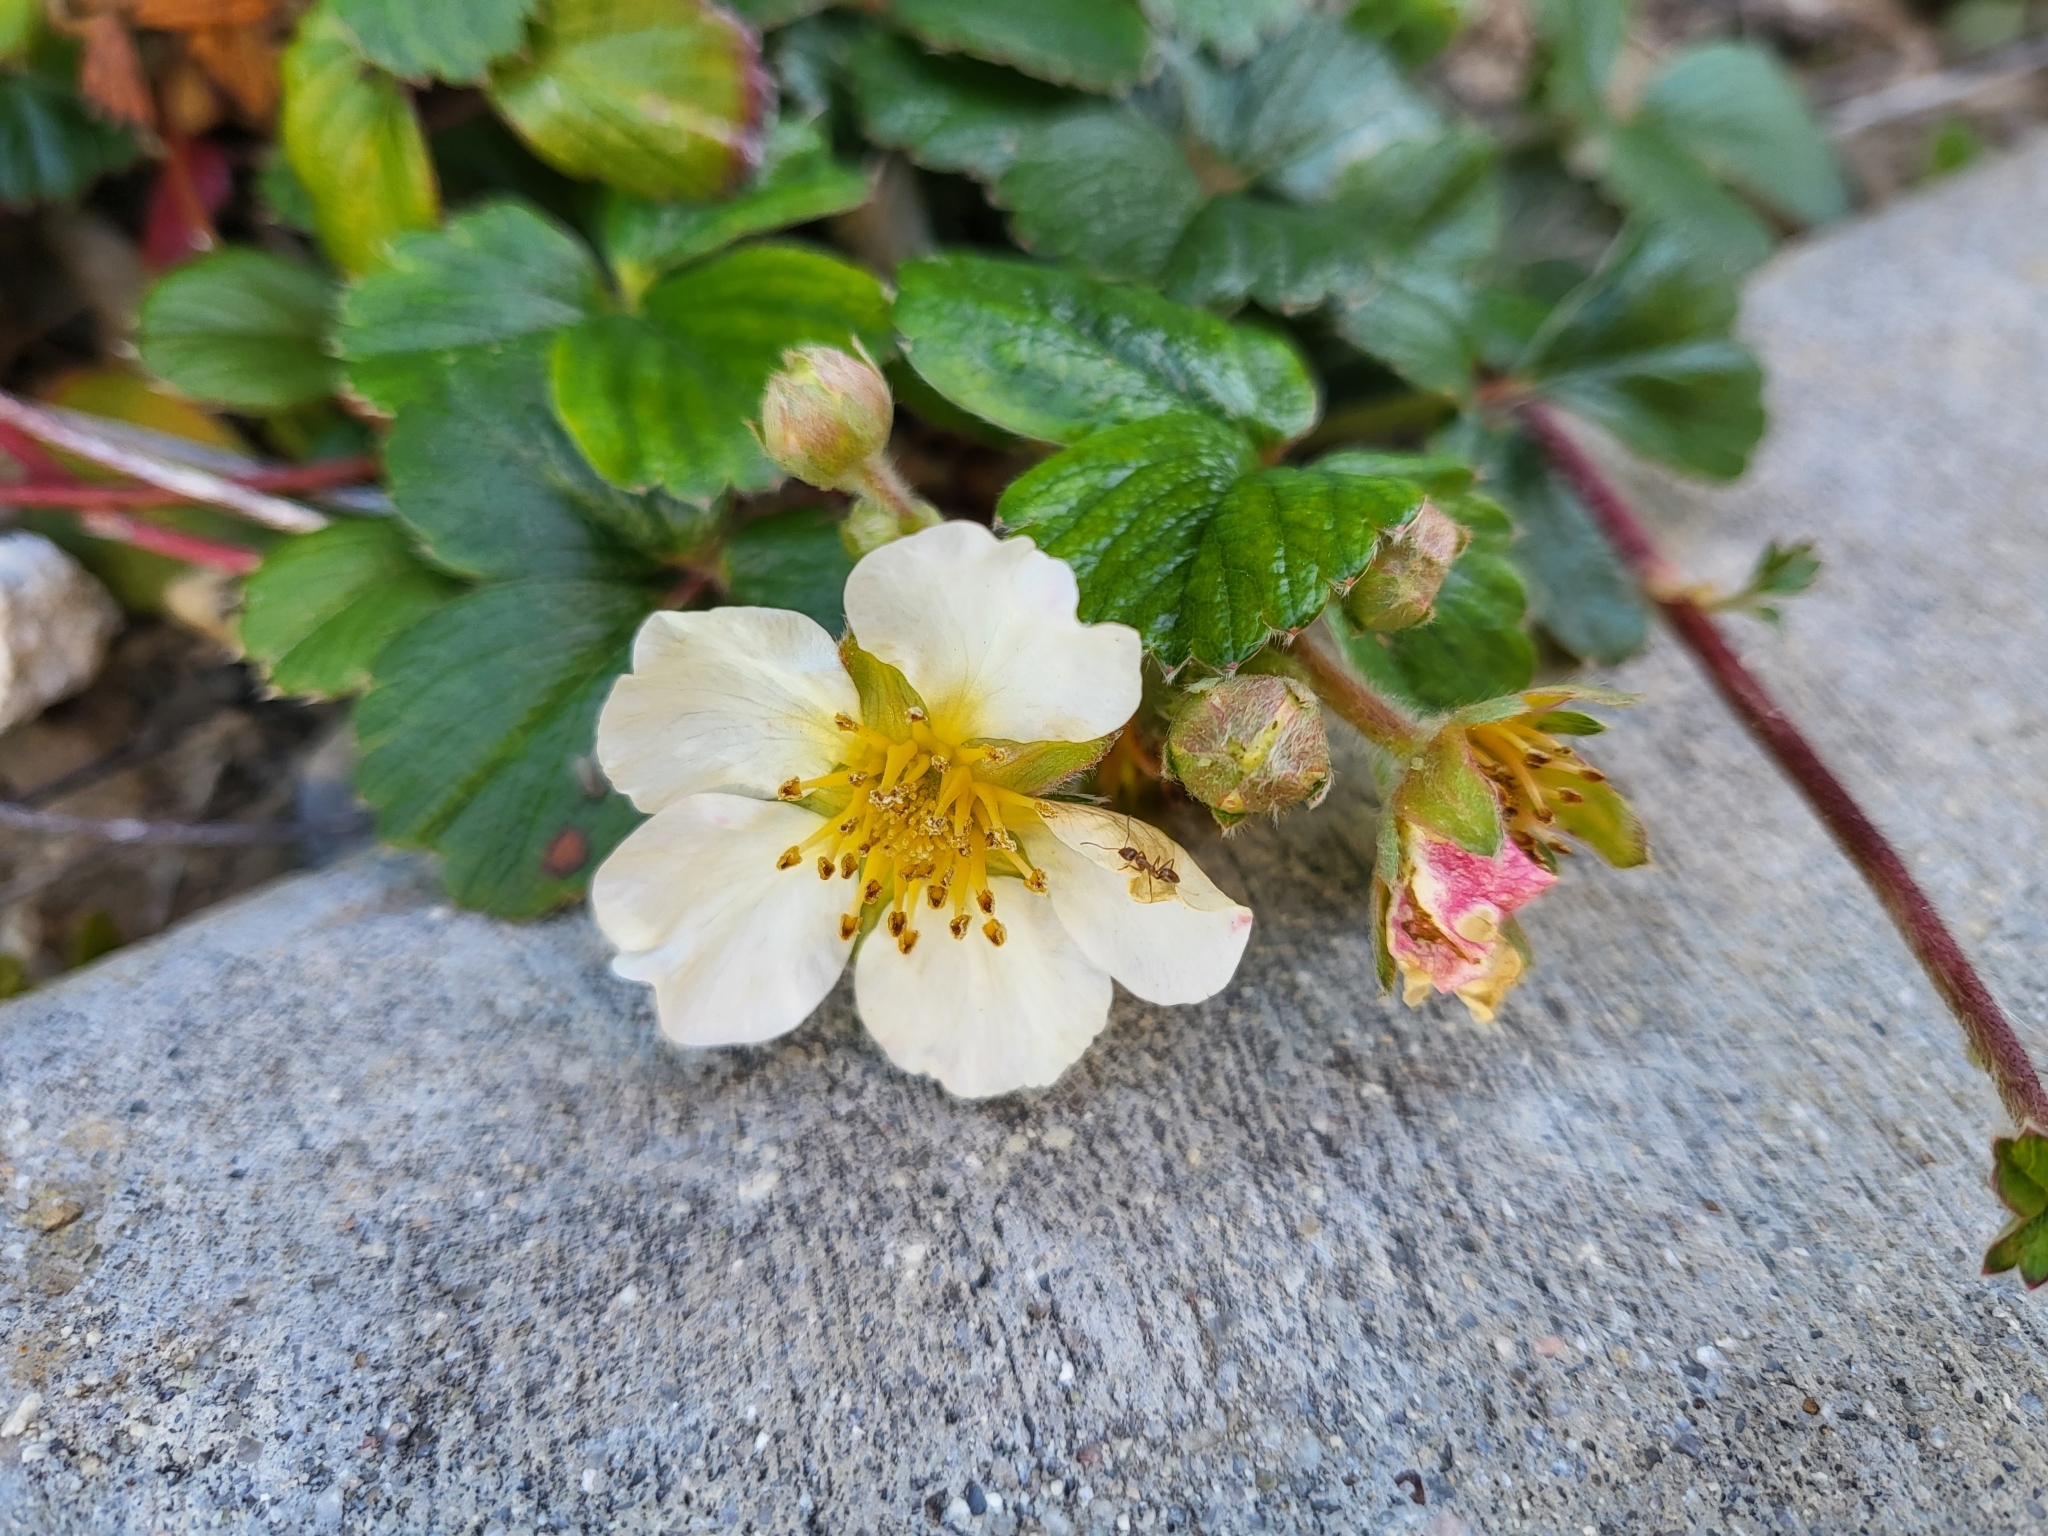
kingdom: Plantae
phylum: Tracheophyta
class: Magnoliopsida
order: Rosales
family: Rosaceae
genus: Fragaria
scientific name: Fragaria chiloensis
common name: Beach strawberry
